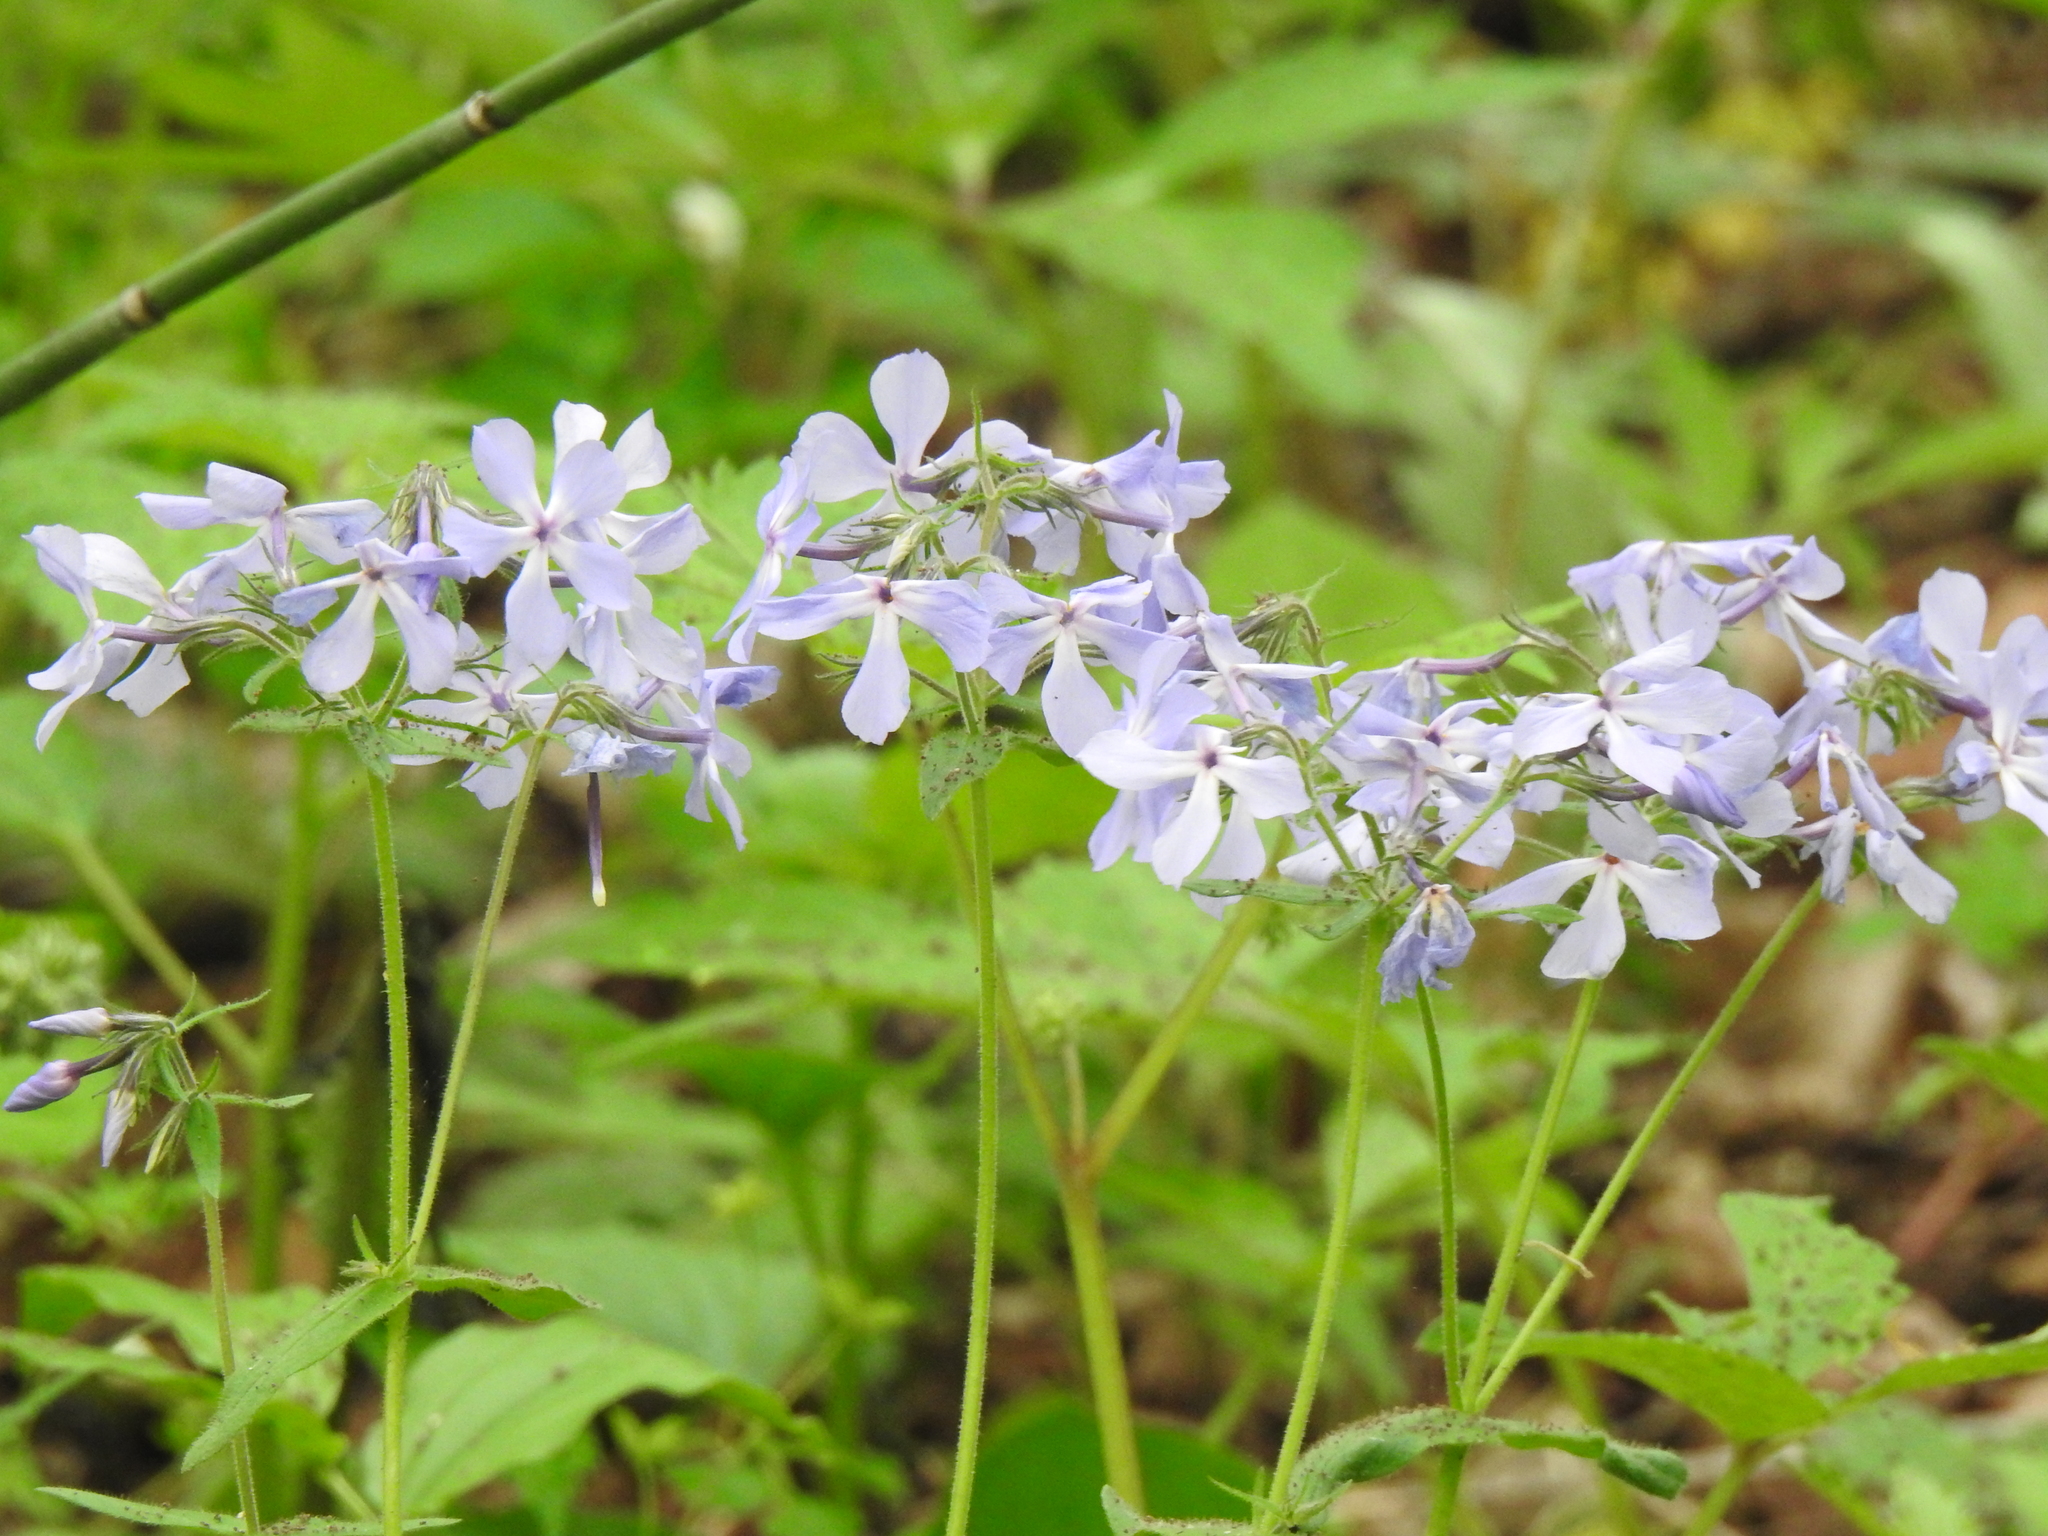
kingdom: Plantae
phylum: Tracheophyta
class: Magnoliopsida
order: Ericales
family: Polemoniaceae
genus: Phlox
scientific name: Phlox divaricata
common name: Blue phlox
